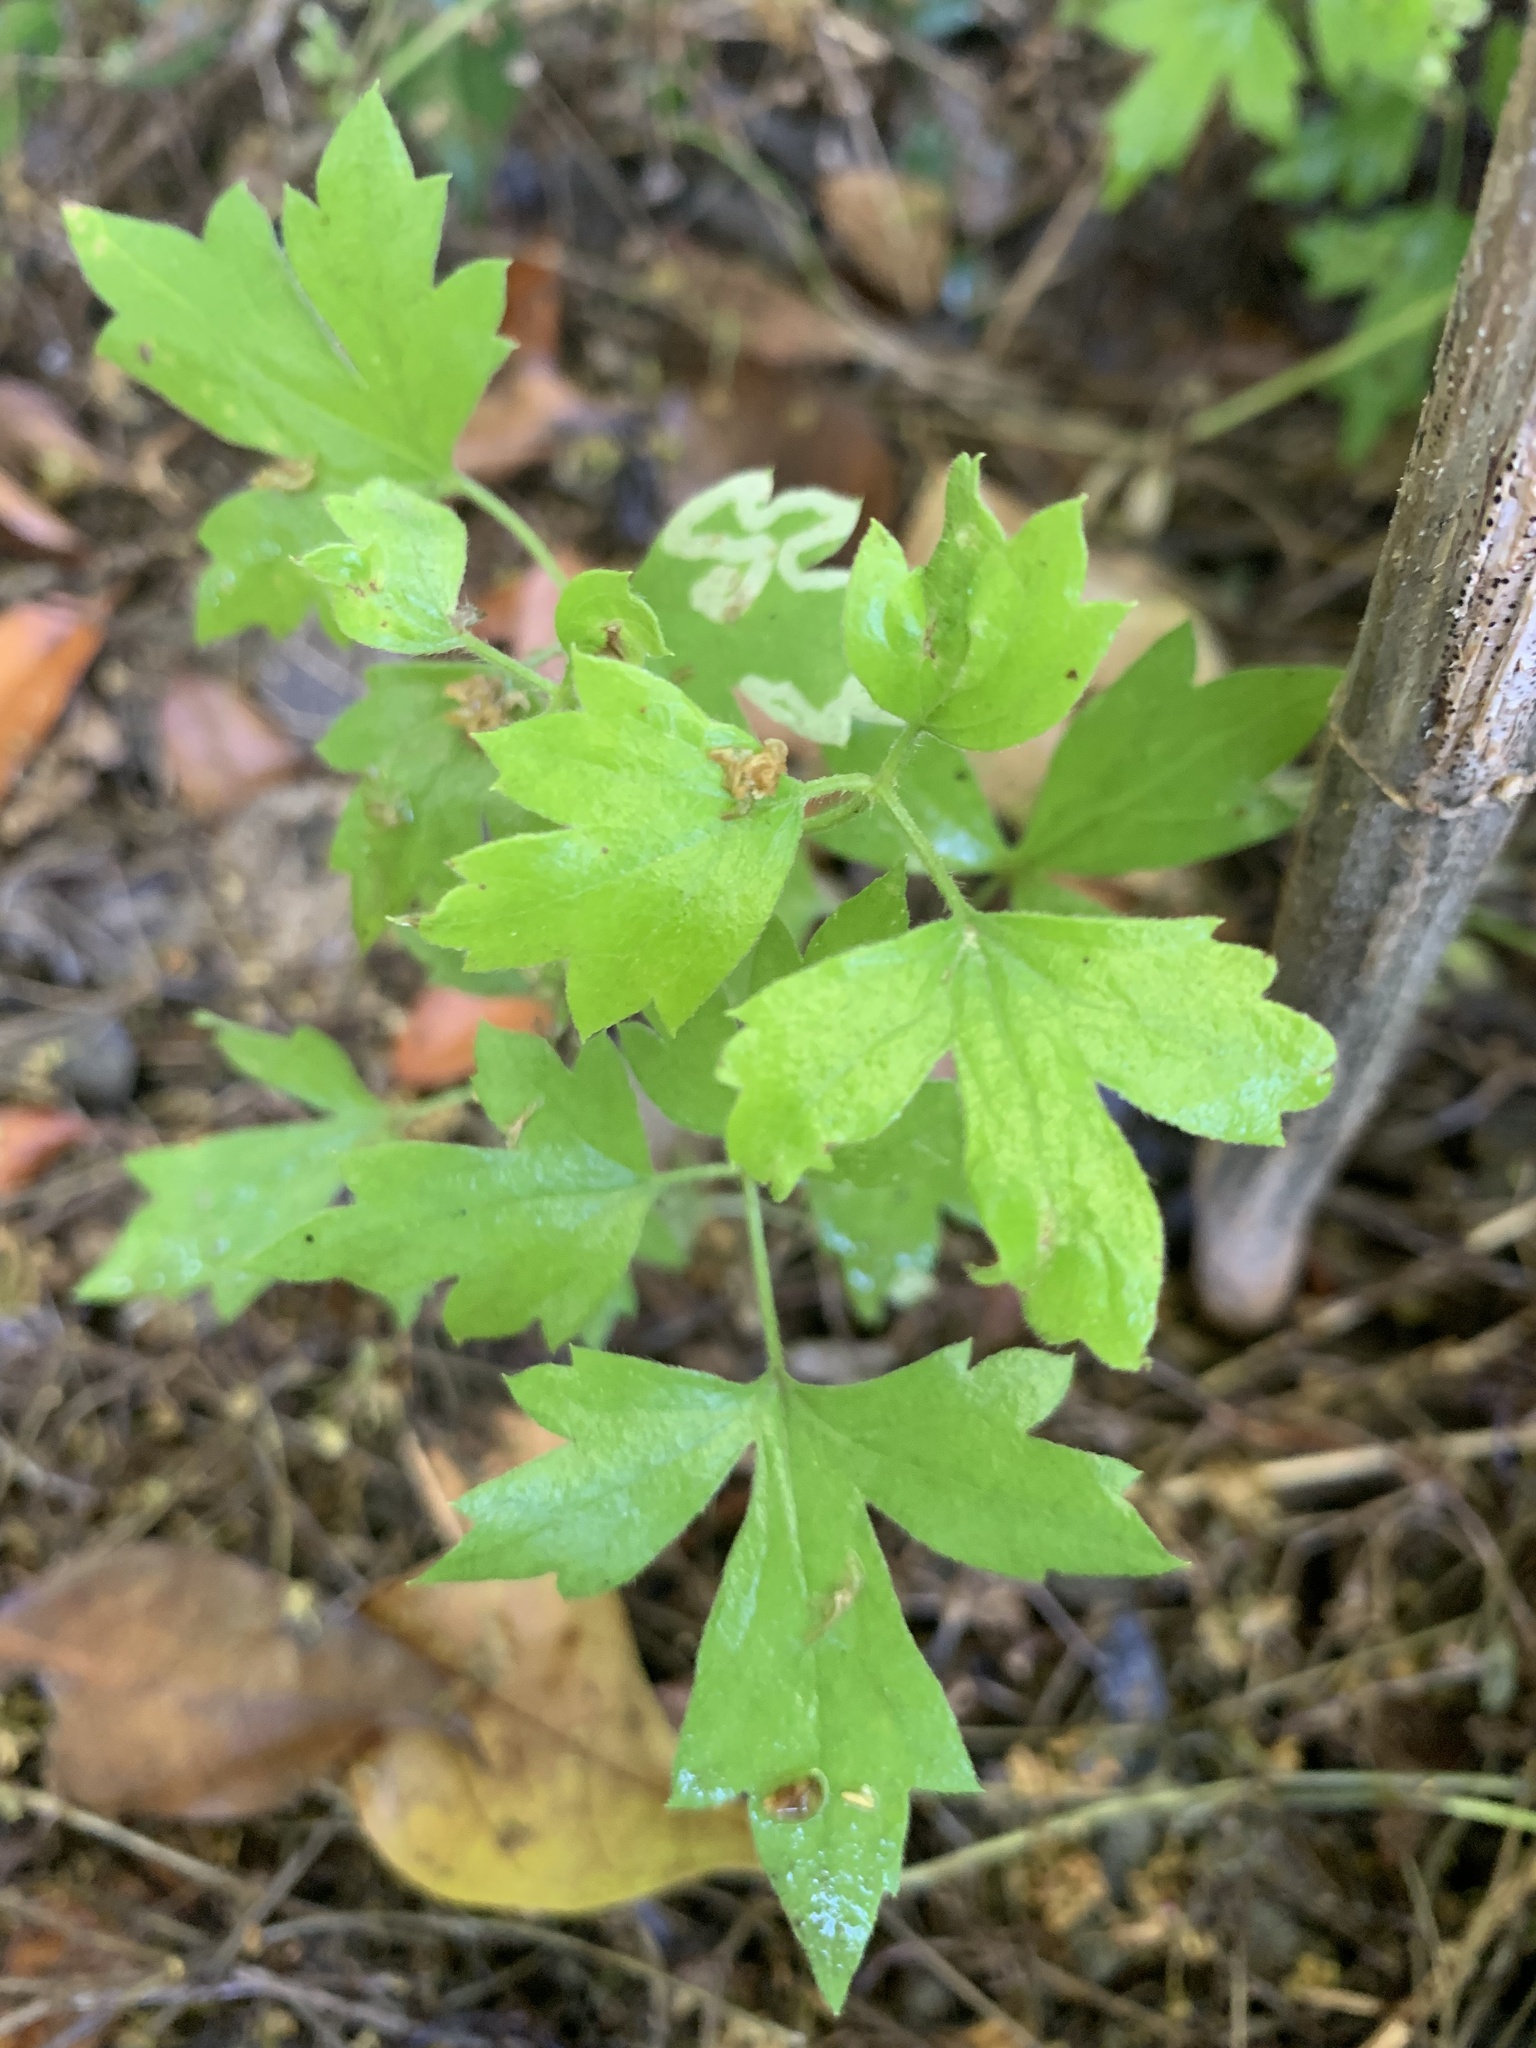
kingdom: Plantae
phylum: Tracheophyta
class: Magnoliopsida
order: Ranunculales
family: Ranunculaceae
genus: Clematis
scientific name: Clematis drummondii
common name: Texas virgin's bower
